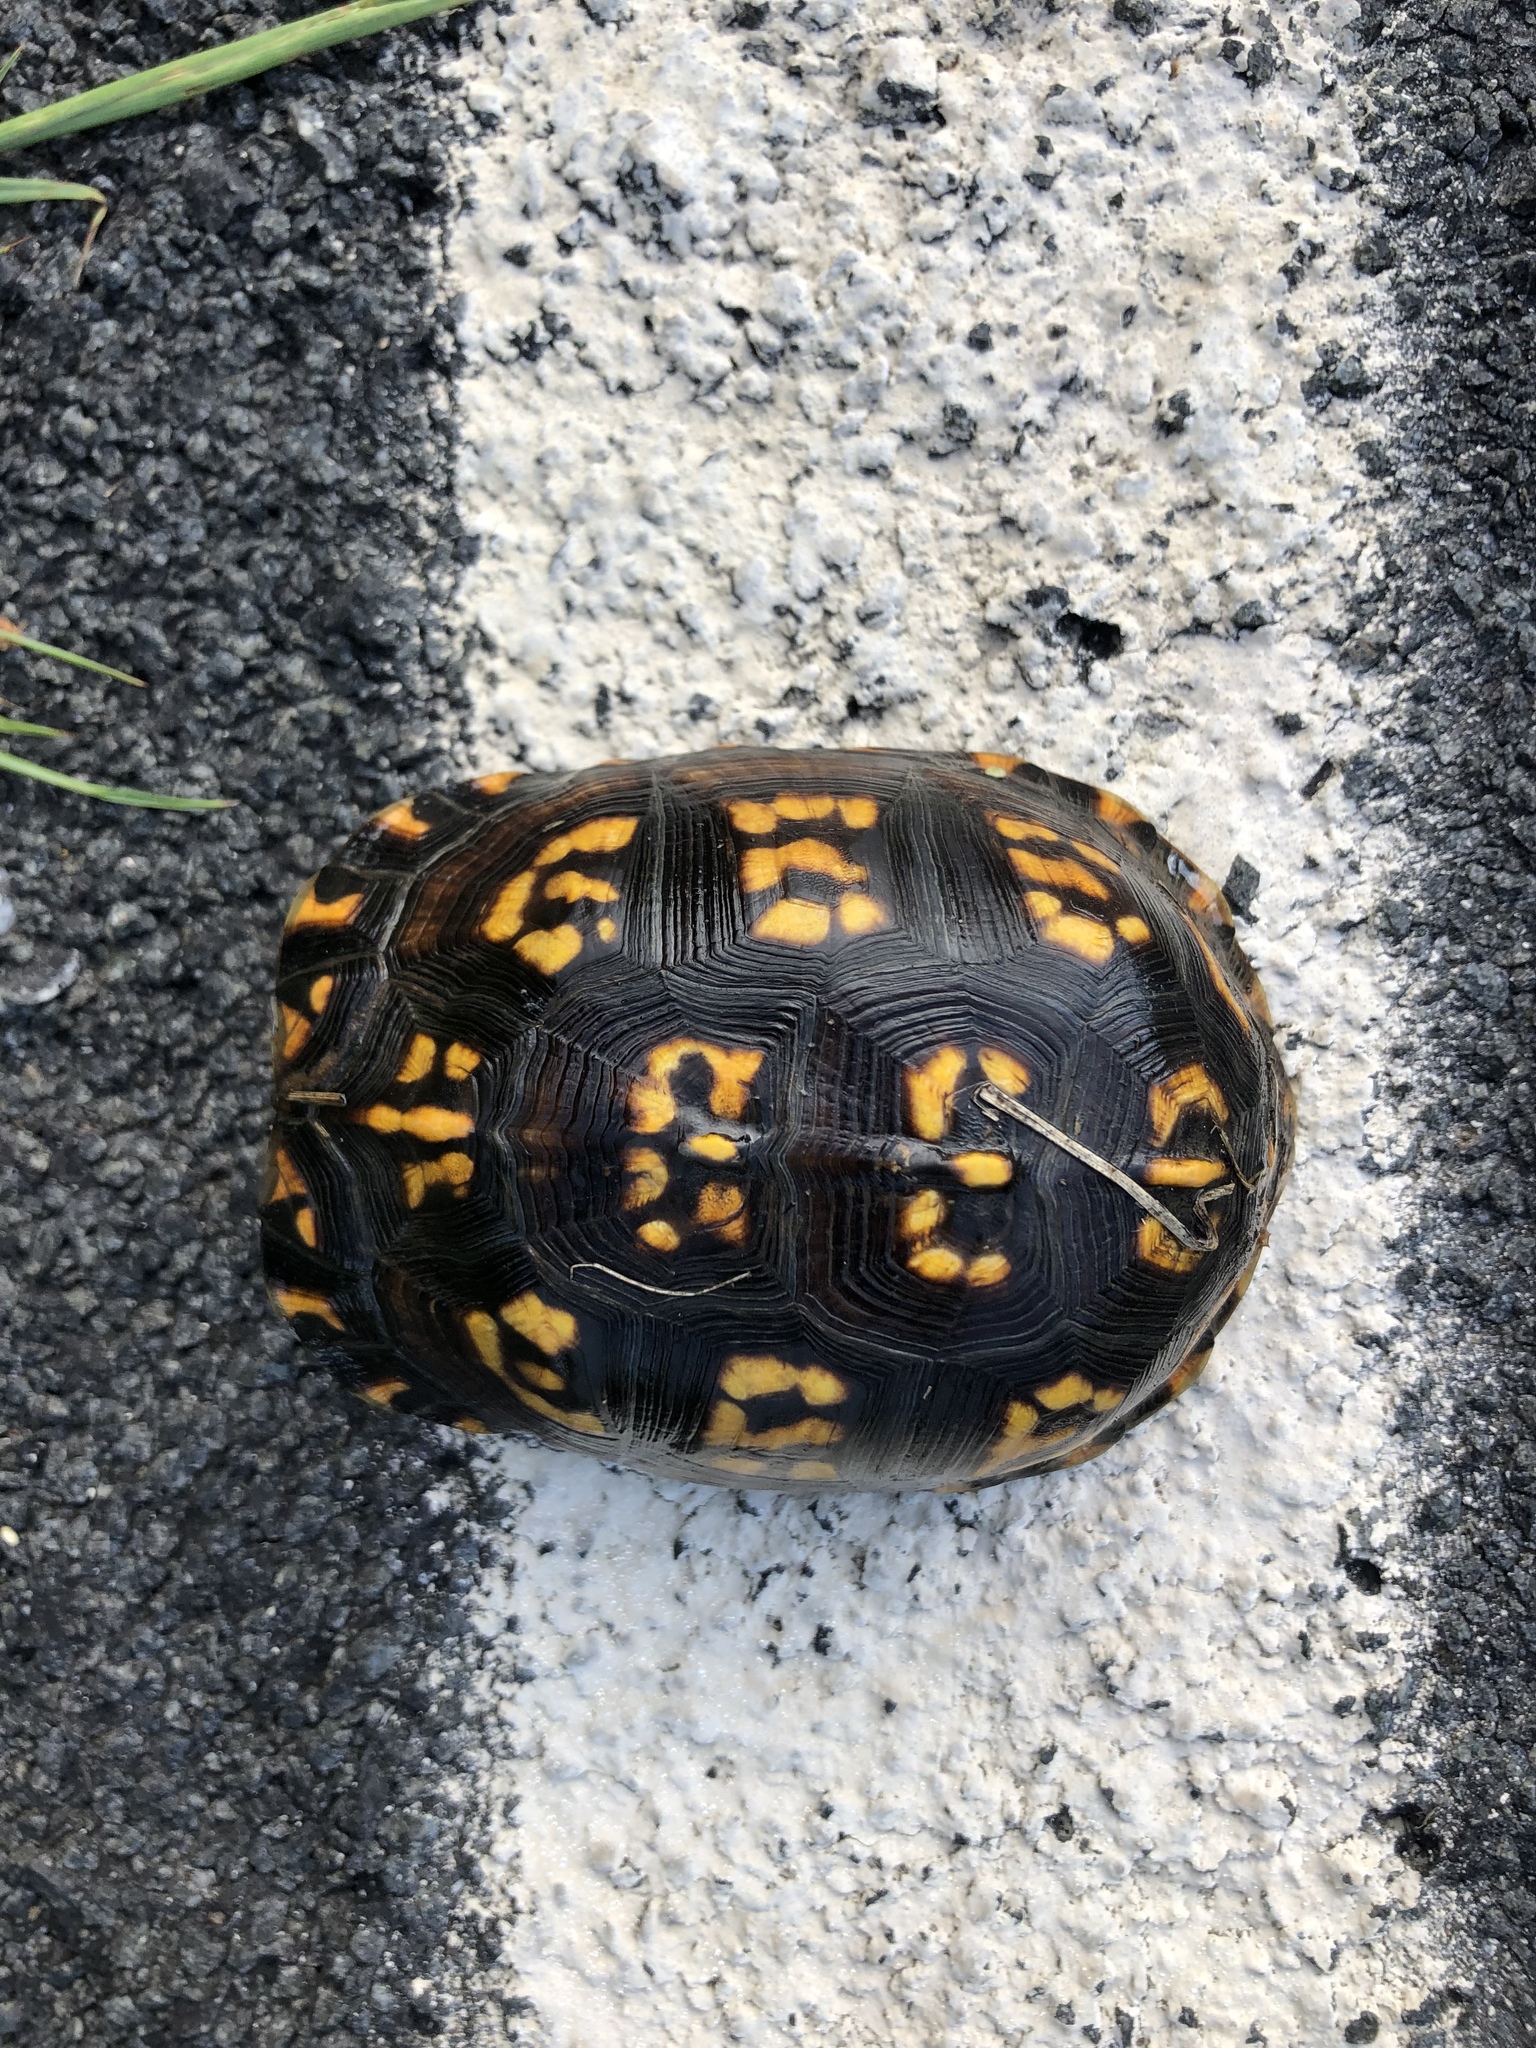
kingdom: Animalia
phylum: Chordata
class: Testudines
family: Emydidae
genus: Terrapene
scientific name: Terrapene carolina
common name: Common box turtle
